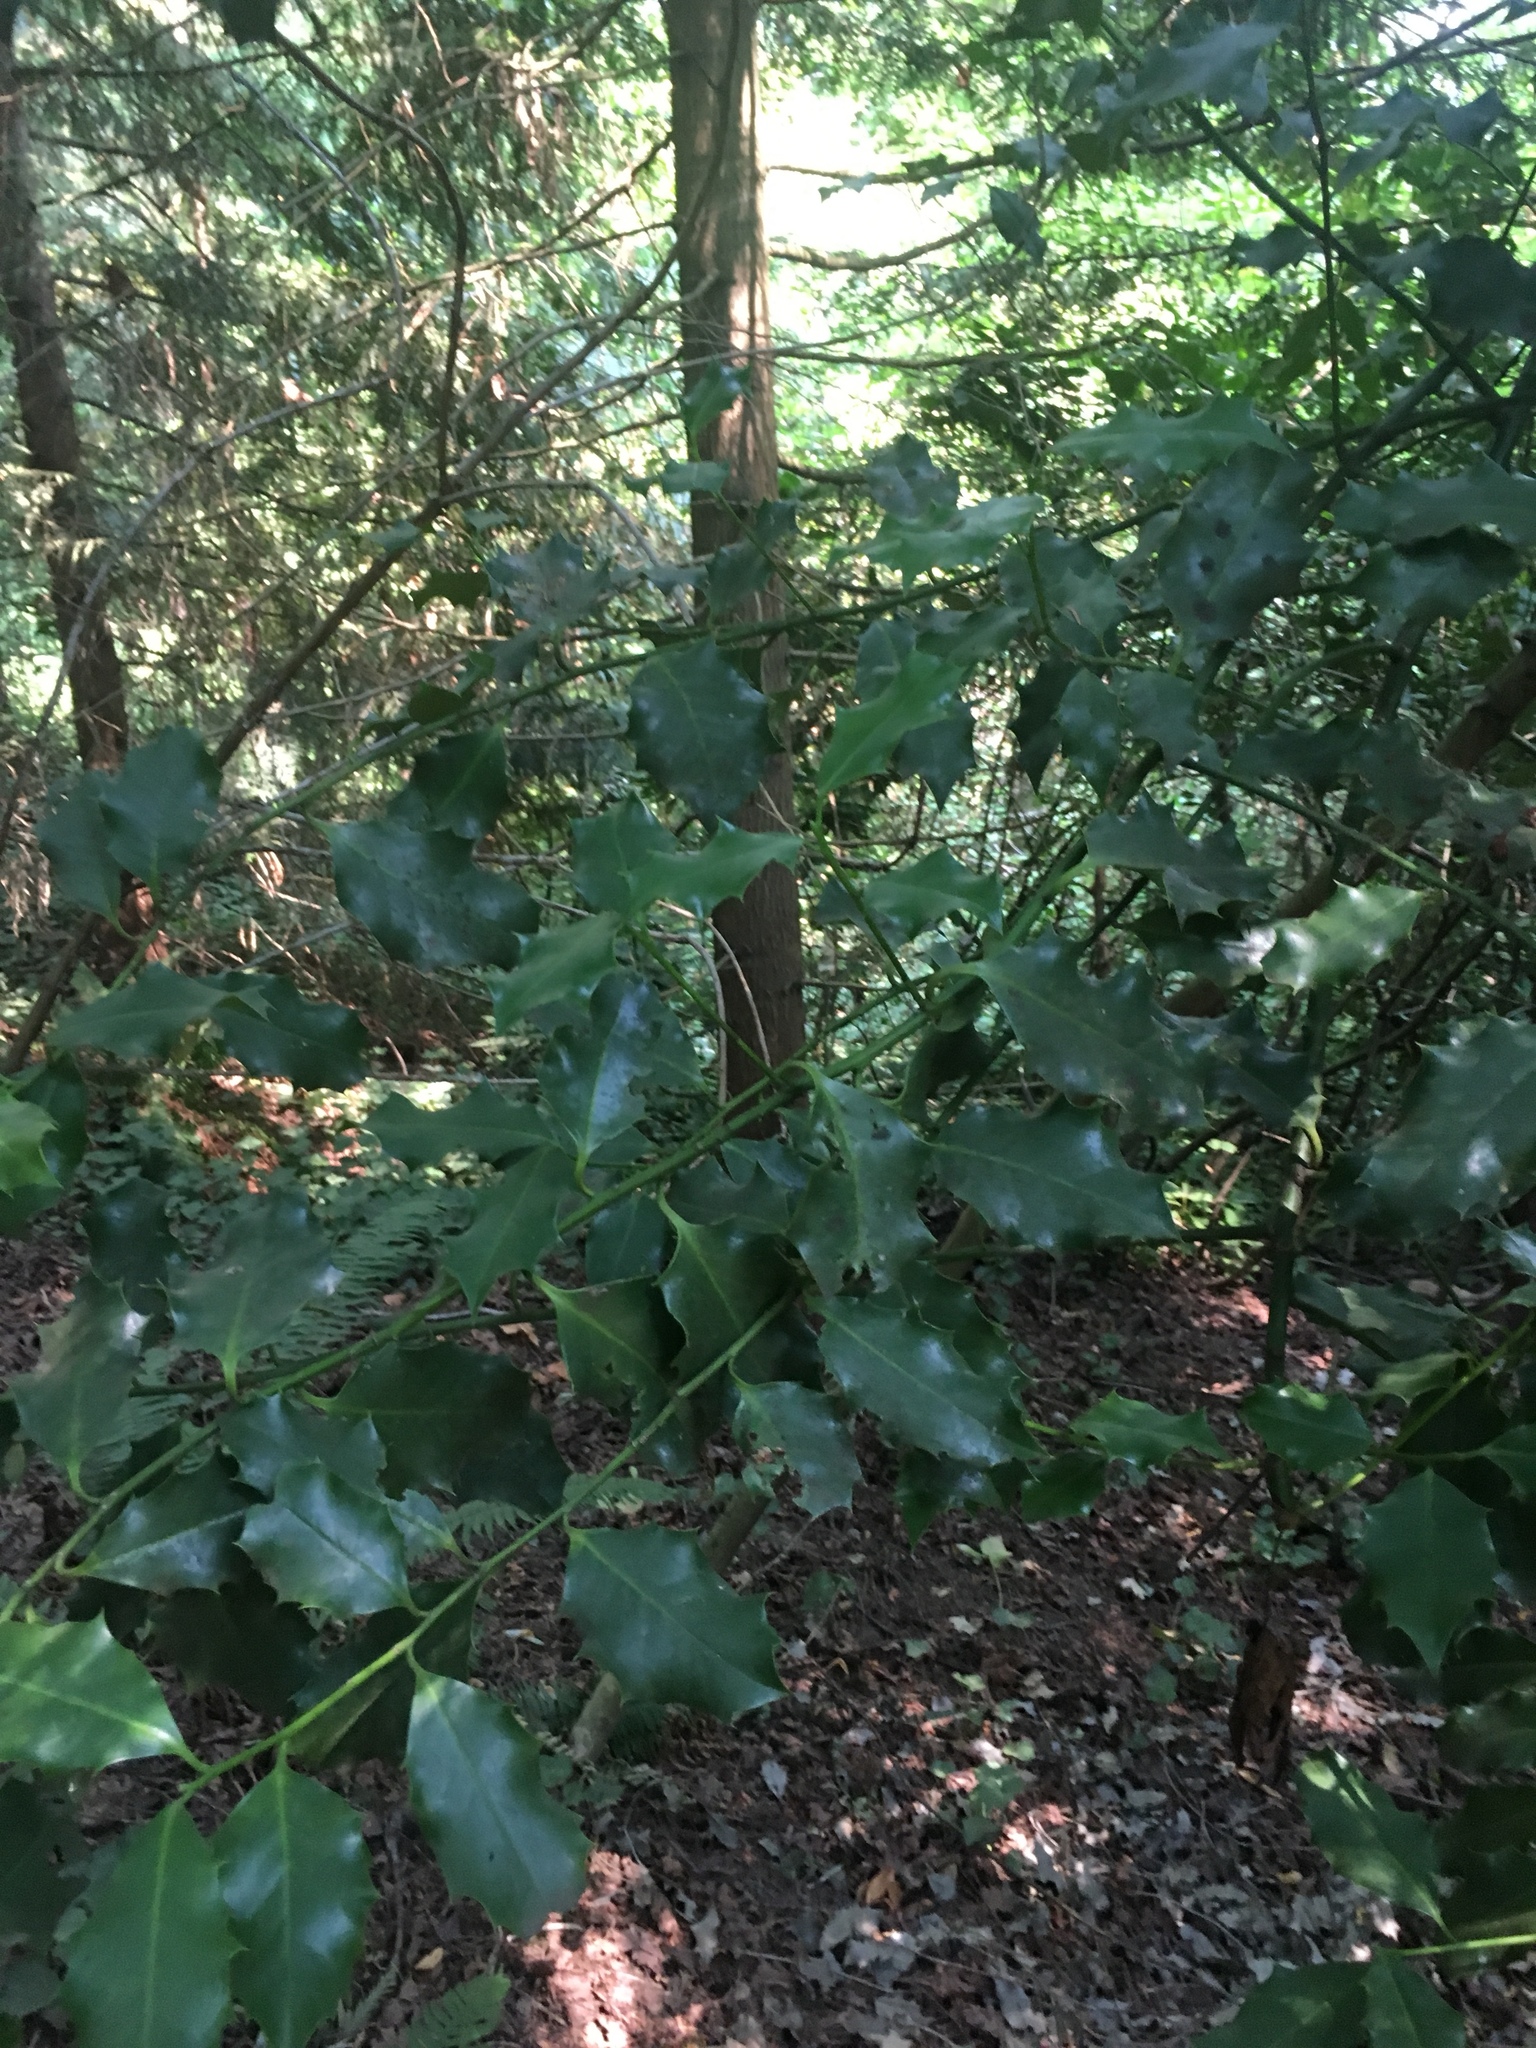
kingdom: Plantae
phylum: Tracheophyta
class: Magnoliopsida
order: Aquifoliales
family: Aquifoliaceae
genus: Ilex
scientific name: Ilex aquifolium
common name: English holly
